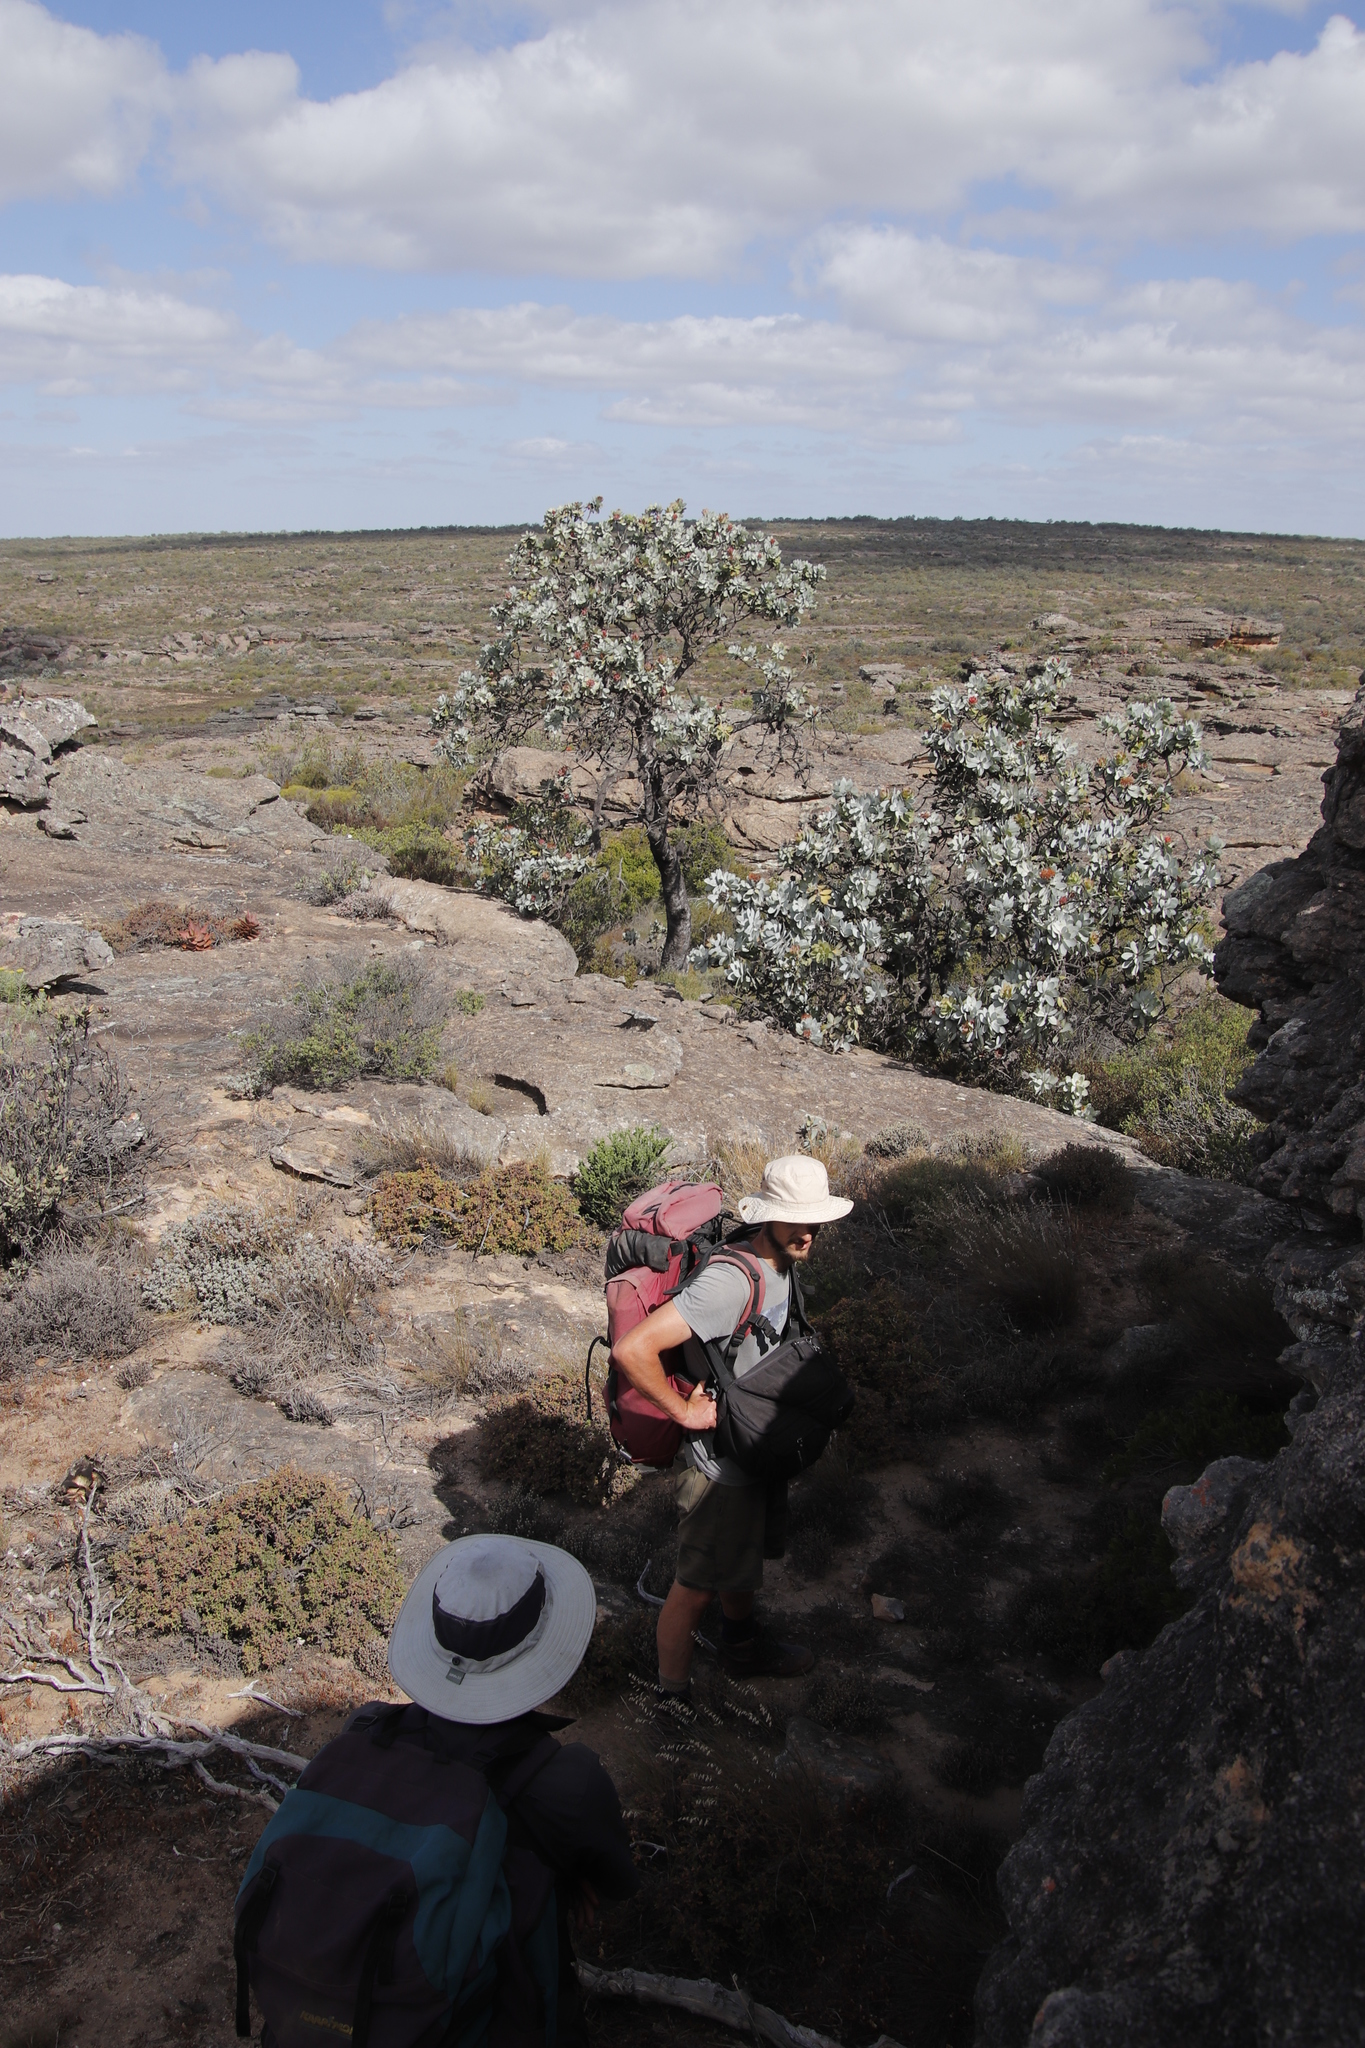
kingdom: Plantae
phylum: Tracheophyta
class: Magnoliopsida
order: Proteales
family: Proteaceae
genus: Protea
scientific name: Protea nitida
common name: Tree protea
